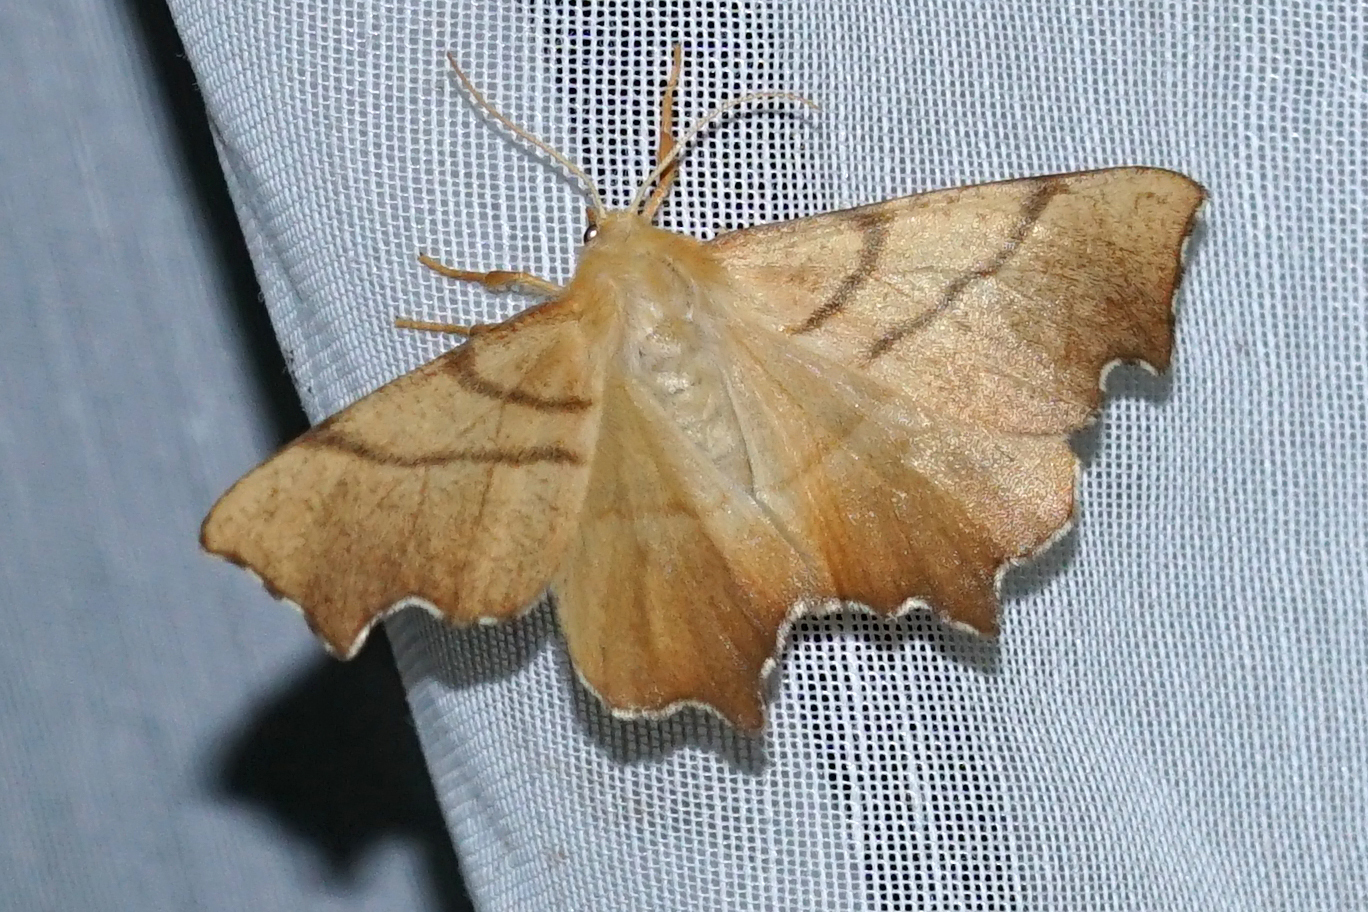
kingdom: Animalia
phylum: Arthropoda
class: Insecta
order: Lepidoptera
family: Geometridae
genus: Ennomos
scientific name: Ennomos erosaria
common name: September thorn
